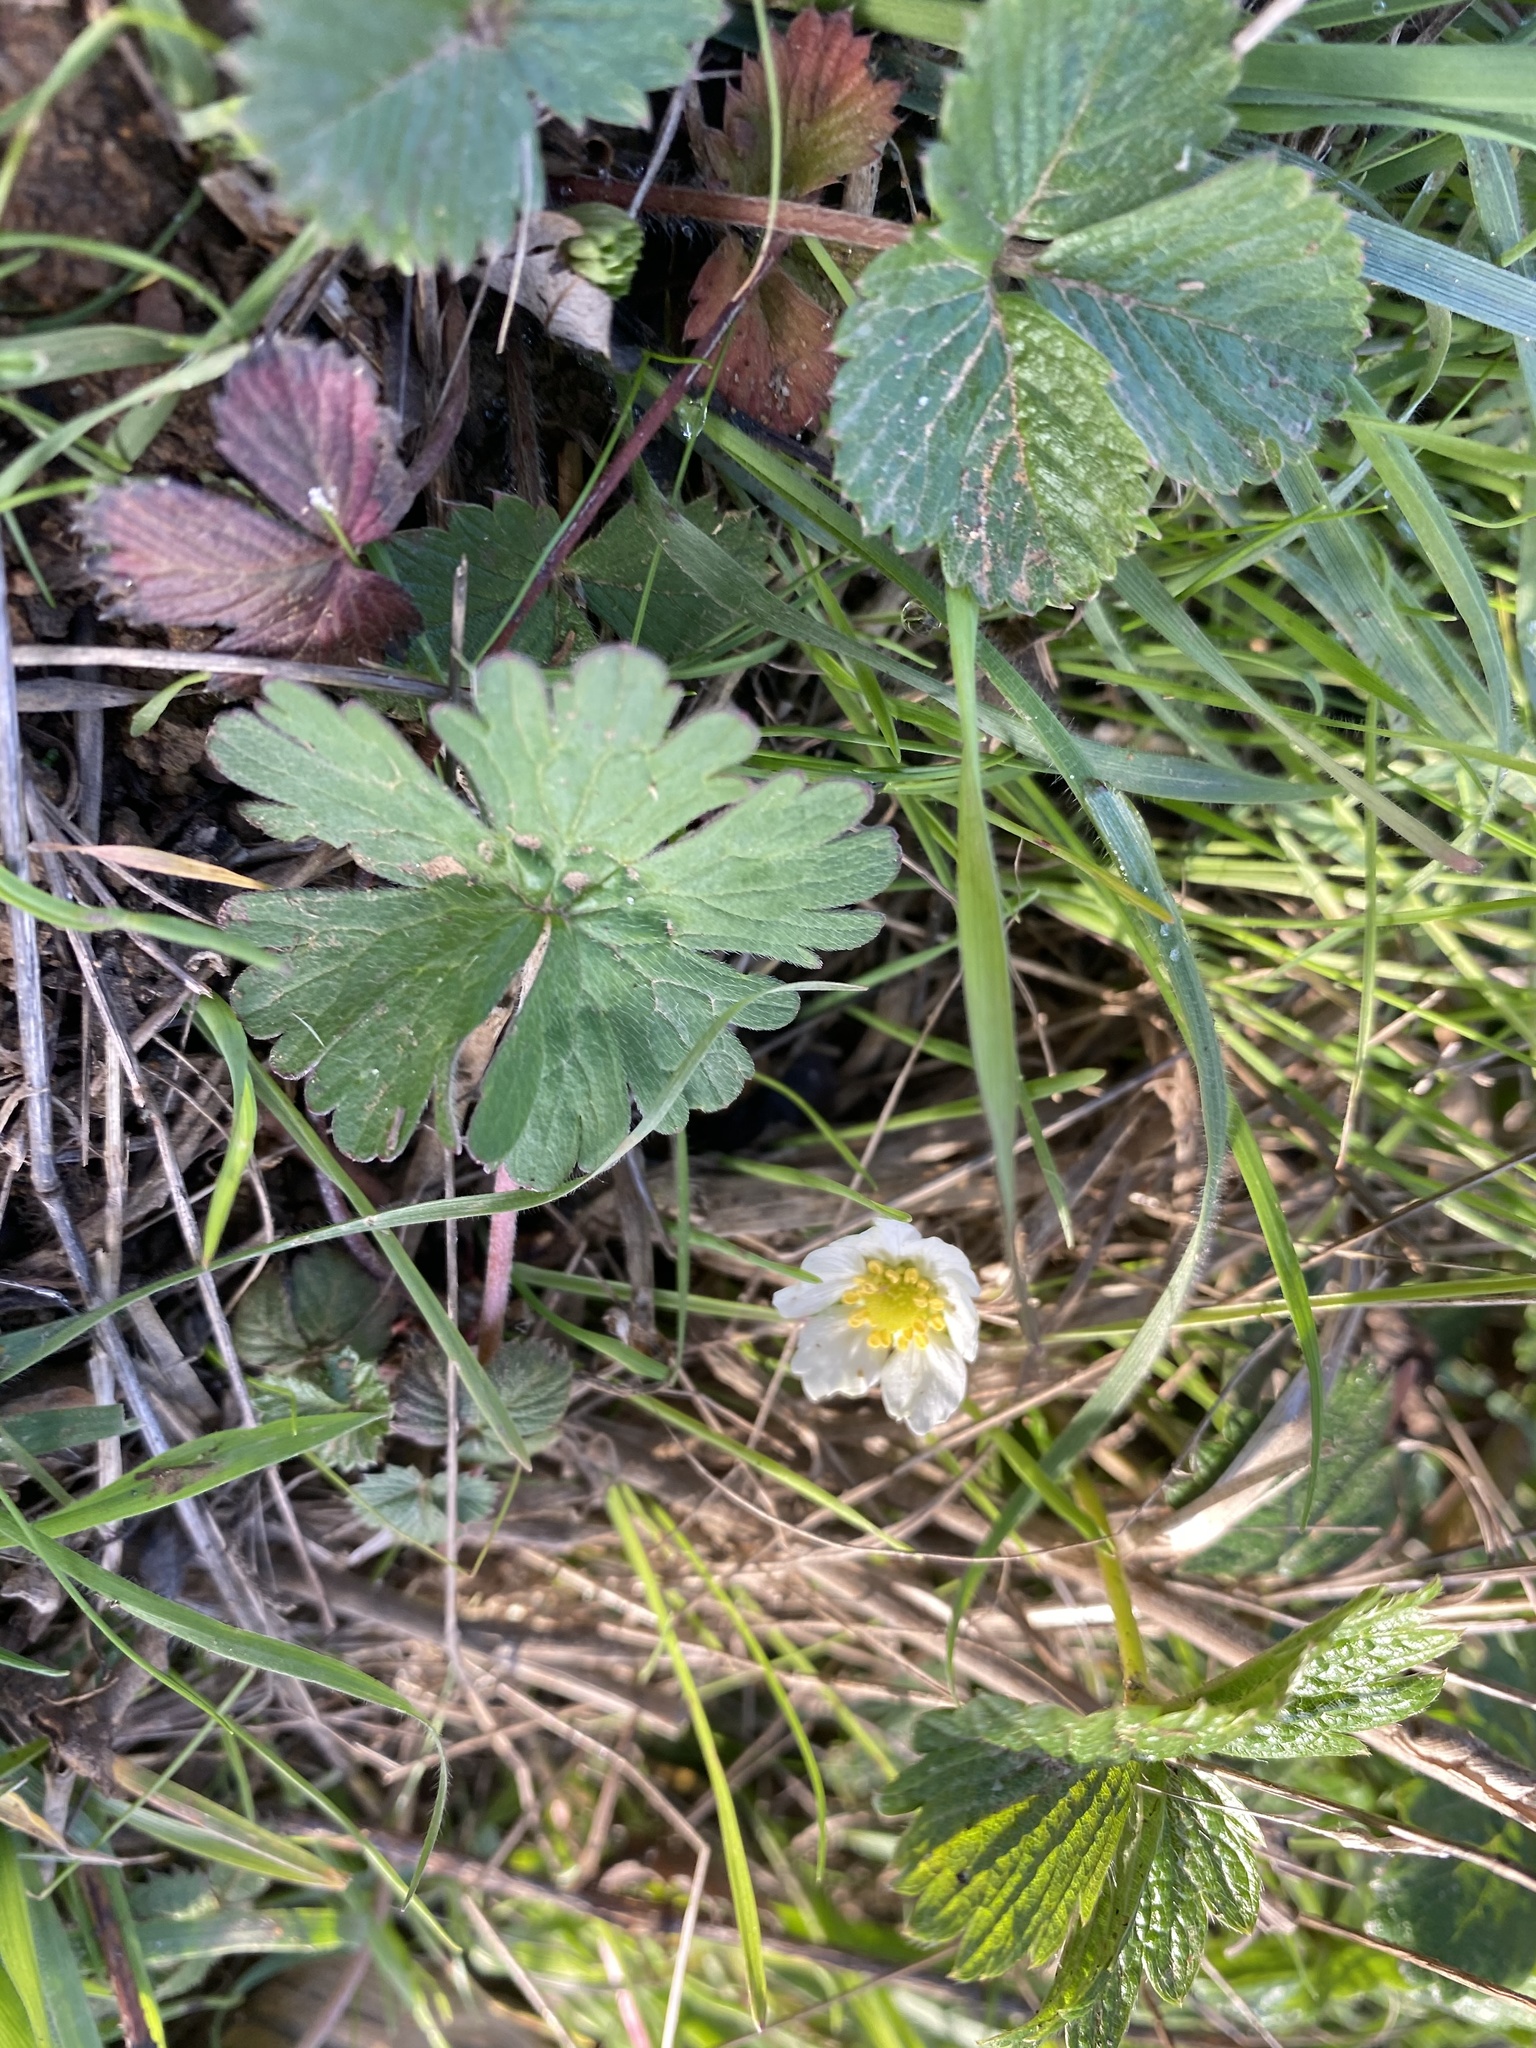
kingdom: Plantae
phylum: Tracheophyta
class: Magnoliopsida
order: Rosales
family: Rosaceae
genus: Fragaria
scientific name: Fragaria vesca
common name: Wild strawberry
